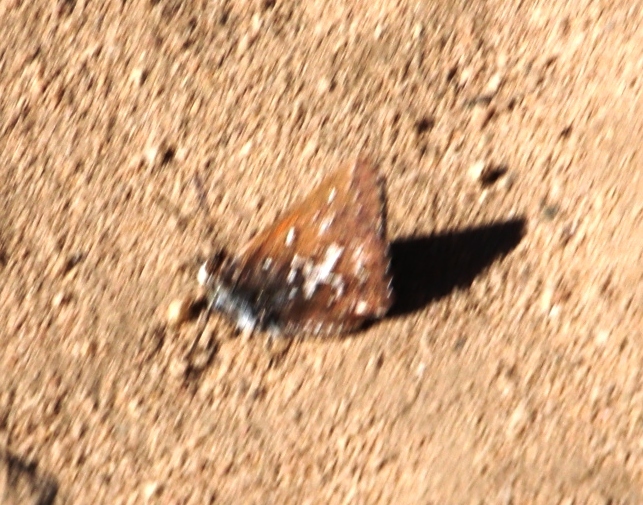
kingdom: Animalia
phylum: Arthropoda
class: Insecta
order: Lepidoptera
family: Lycaenidae
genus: Aloeides
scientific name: Aloeides thyra
